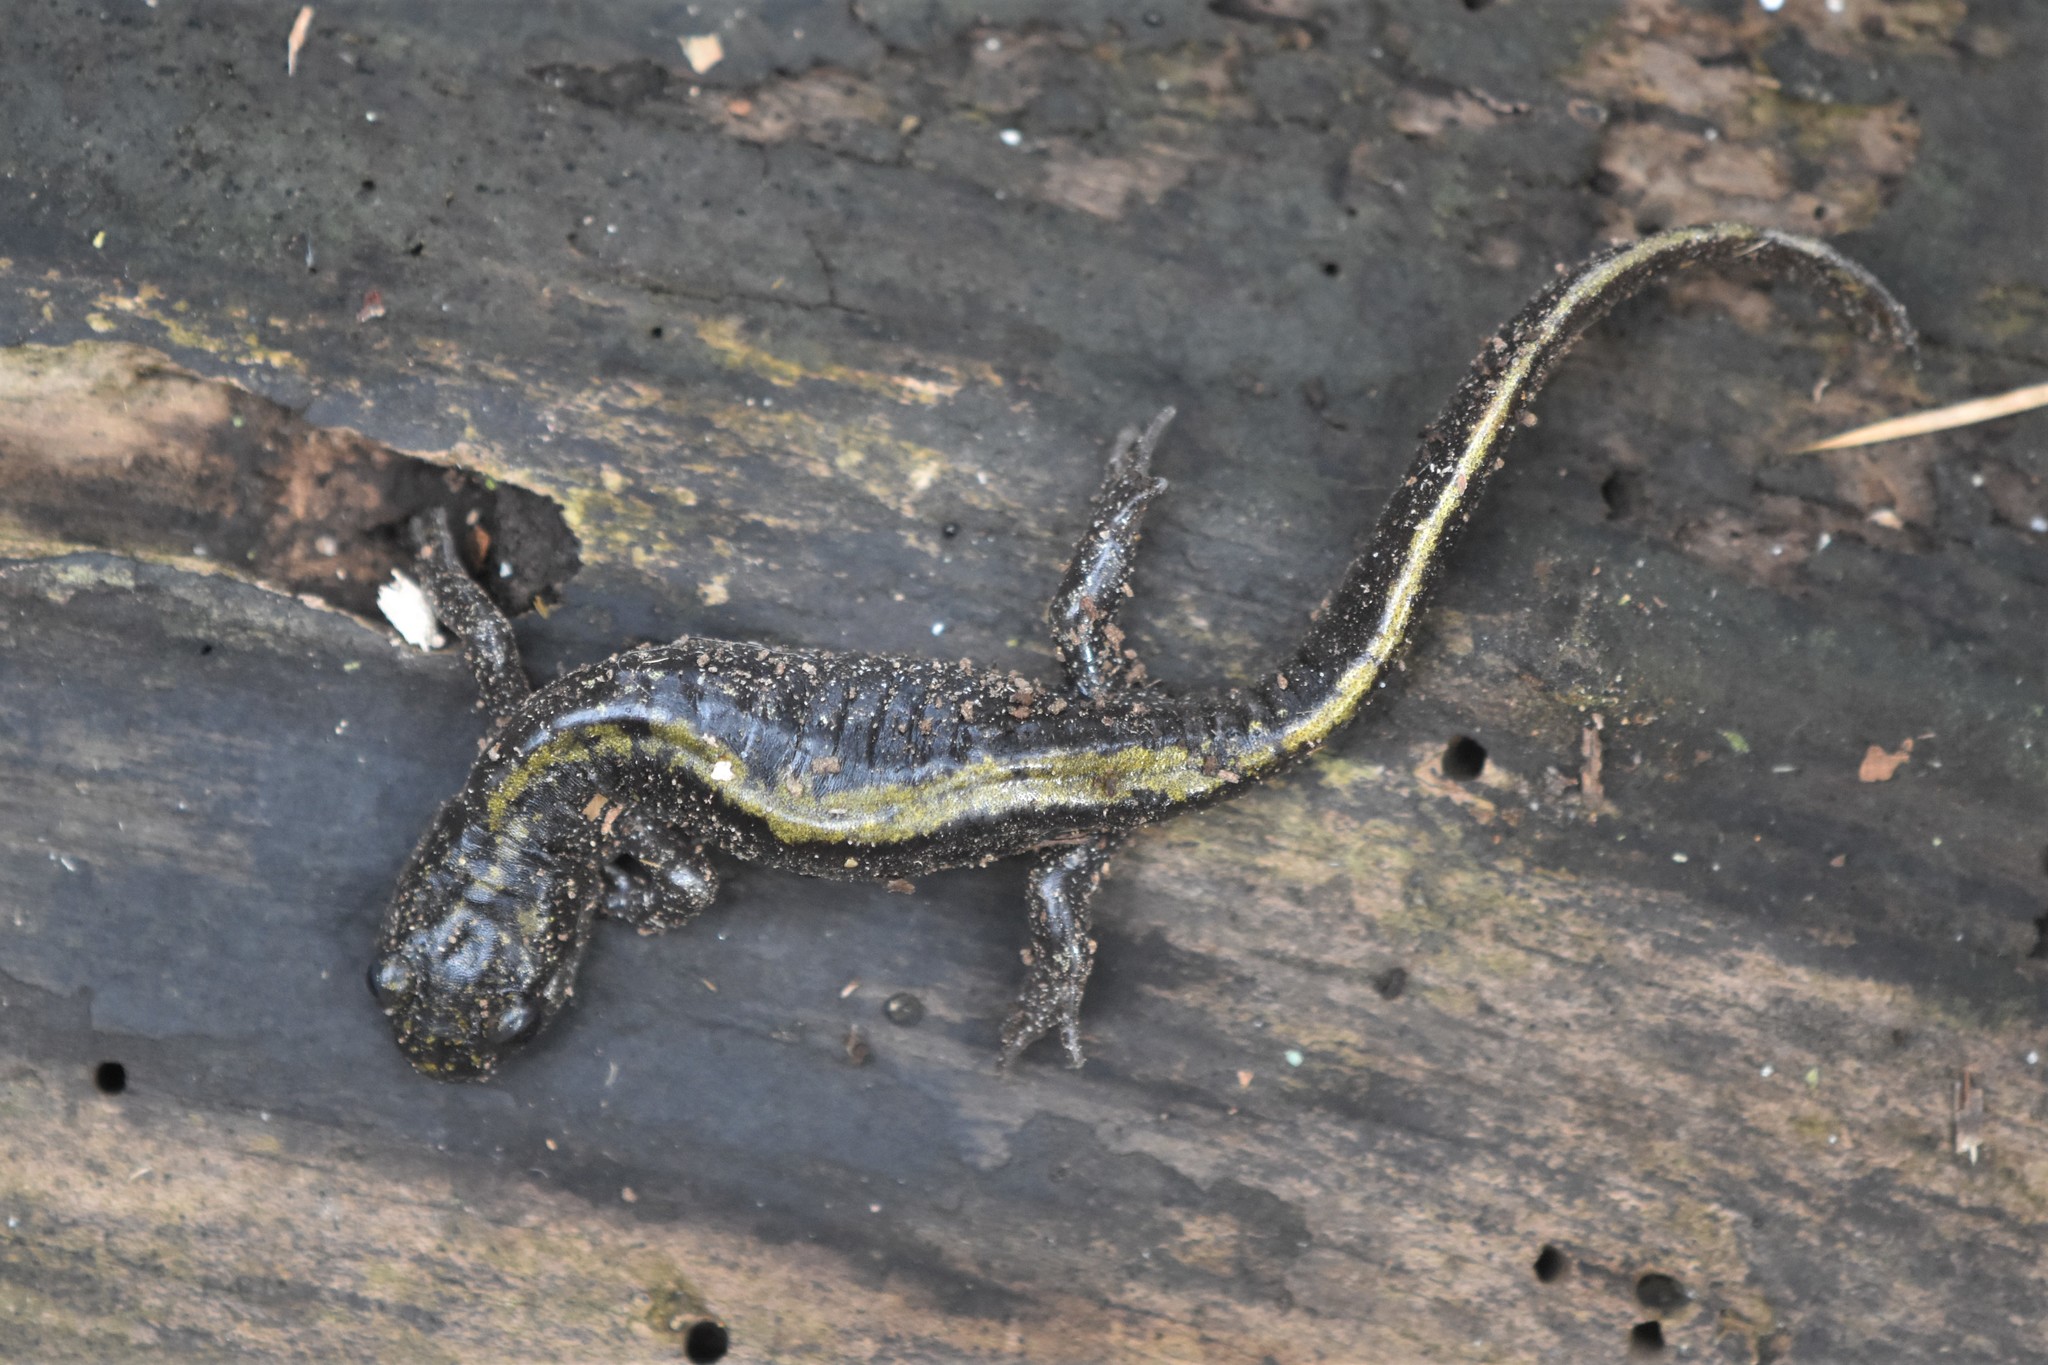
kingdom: Animalia
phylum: Chordata
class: Amphibia
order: Caudata
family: Ambystomatidae
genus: Ambystoma
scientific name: Ambystoma macrodactylum
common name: Long-toed salamander
